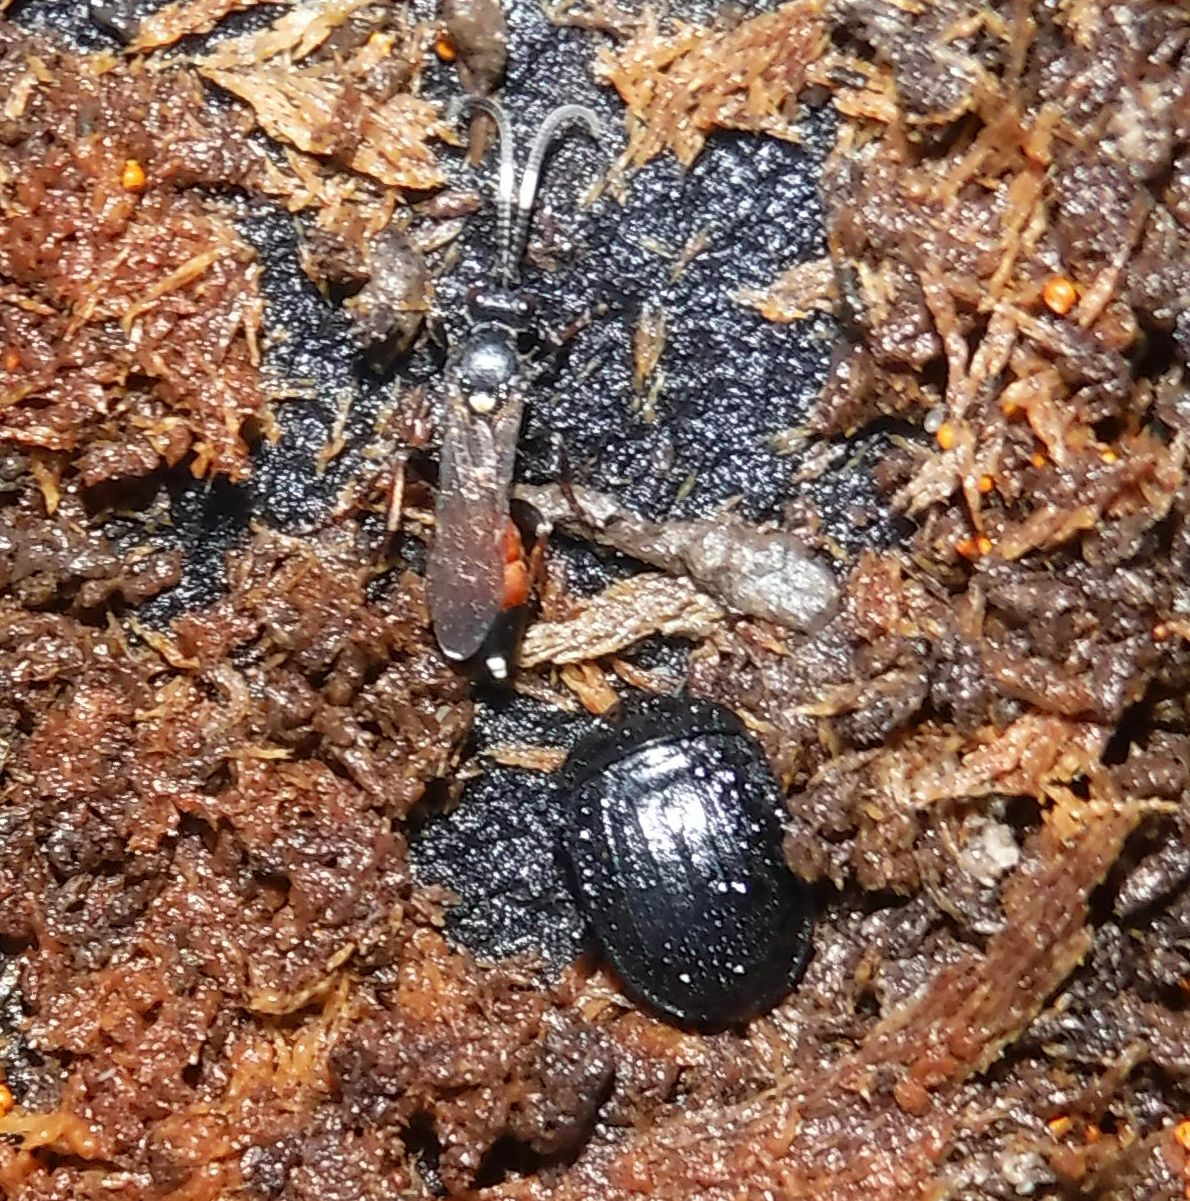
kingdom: Animalia
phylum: Arthropoda
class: Insecta
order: Coleoptera
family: Staphylinidae
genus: Silpha
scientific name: Silpha atrata
